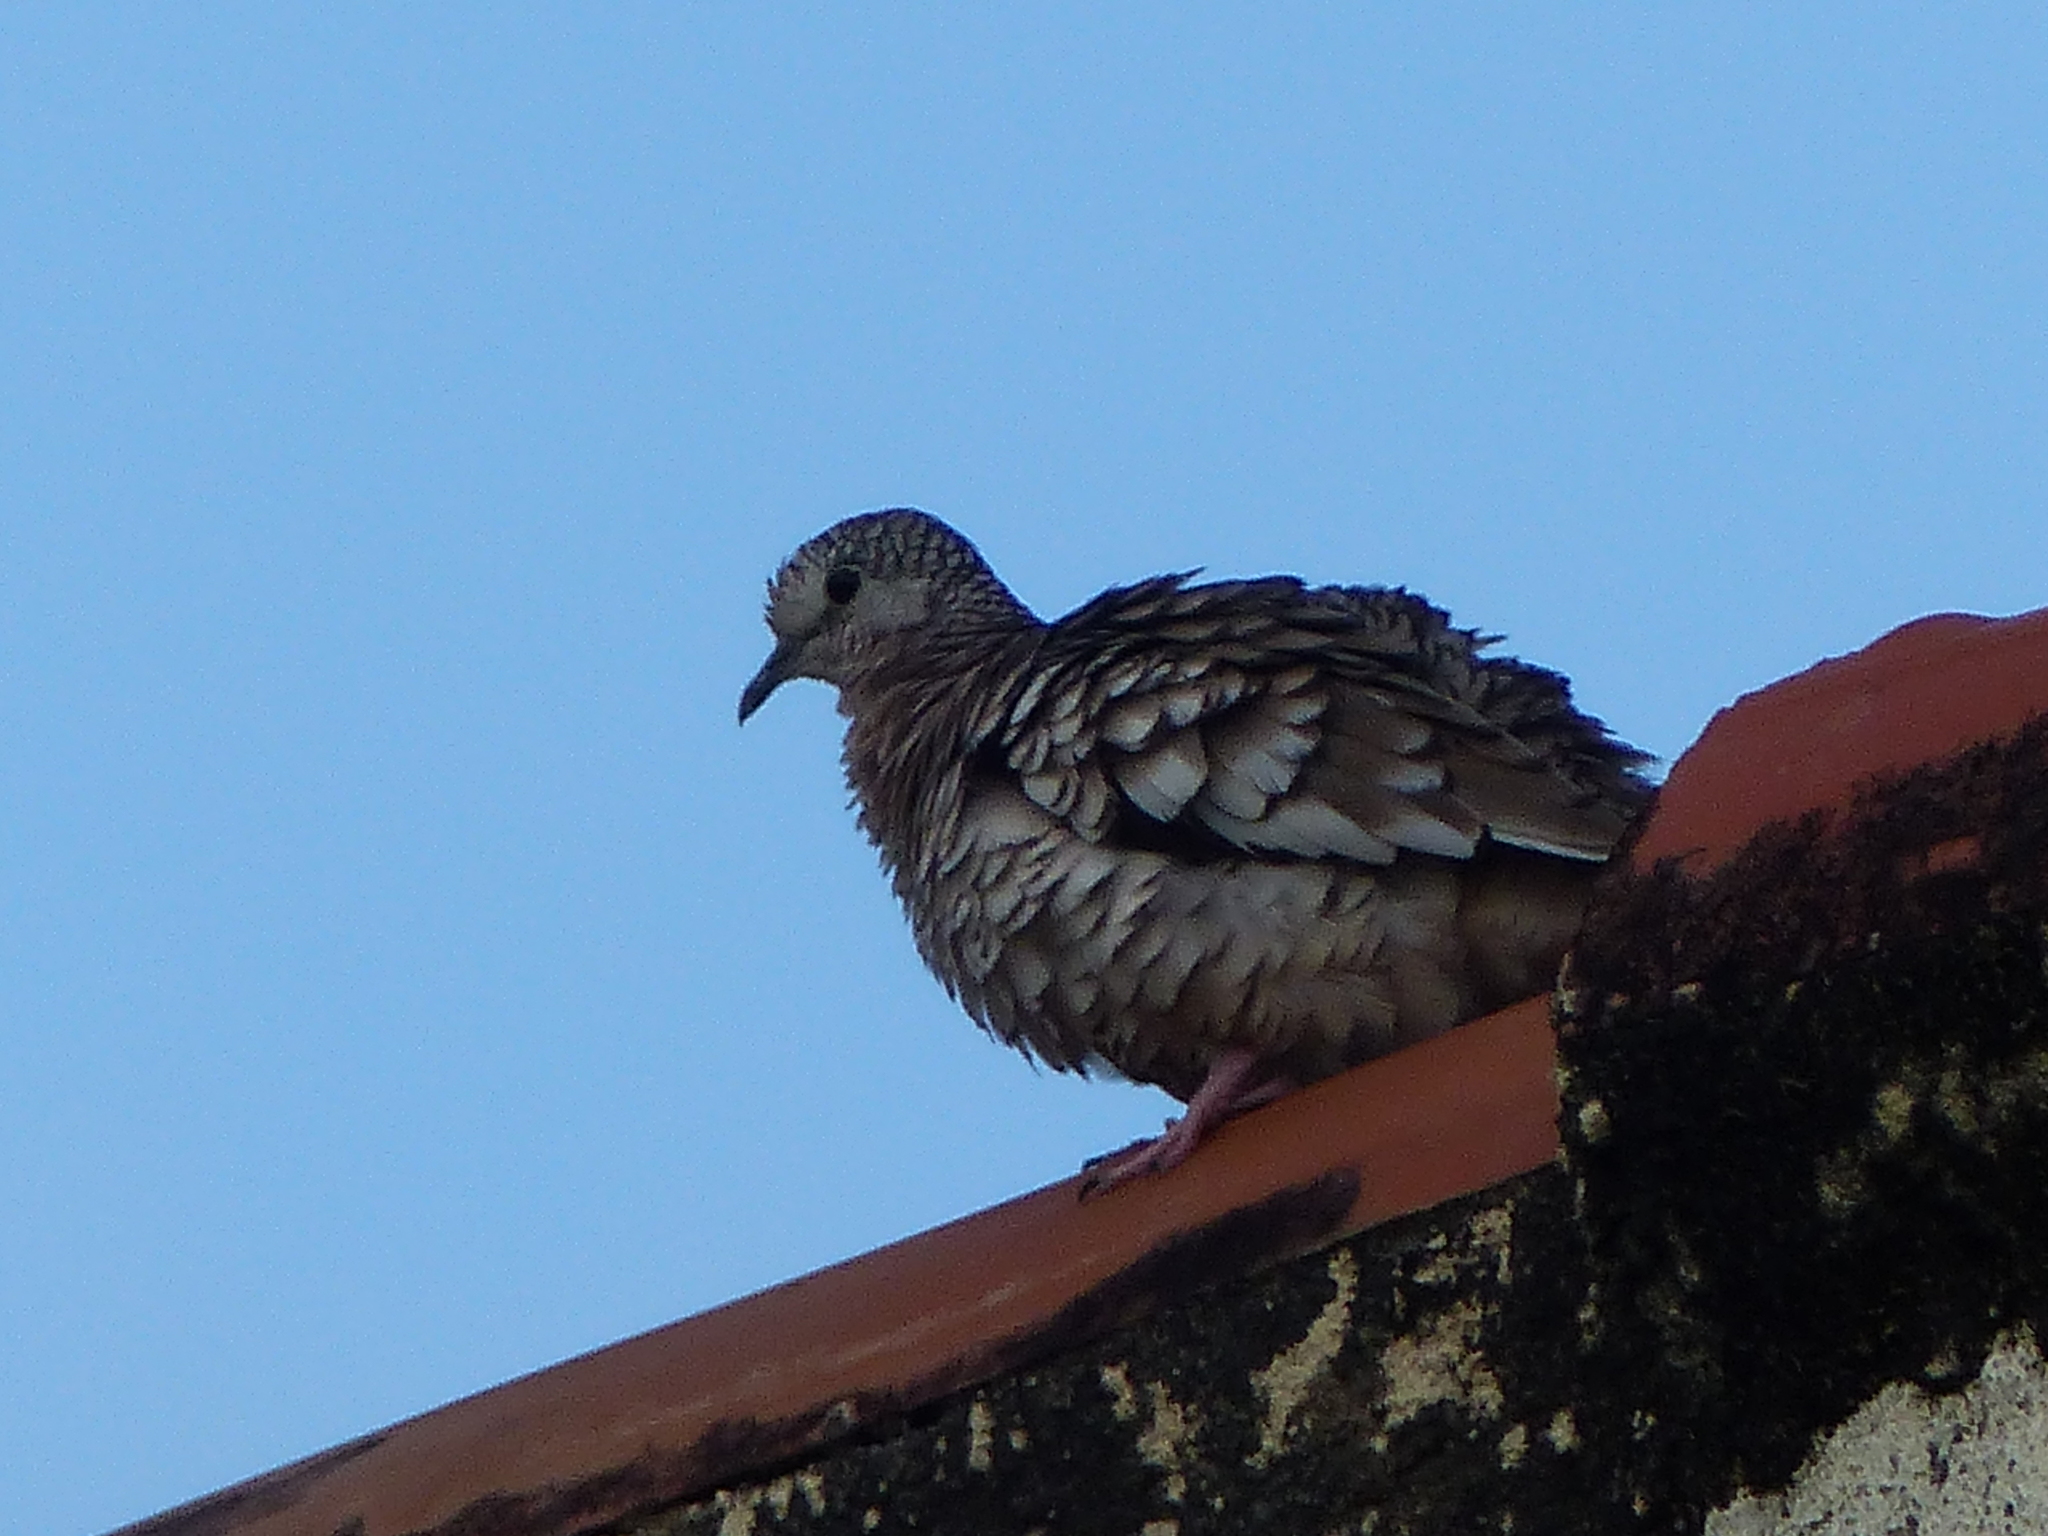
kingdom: Animalia
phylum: Chordata
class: Aves
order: Columbiformes
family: Columbidae
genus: Columbina
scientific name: Columbina squammata
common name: Scaled dove
